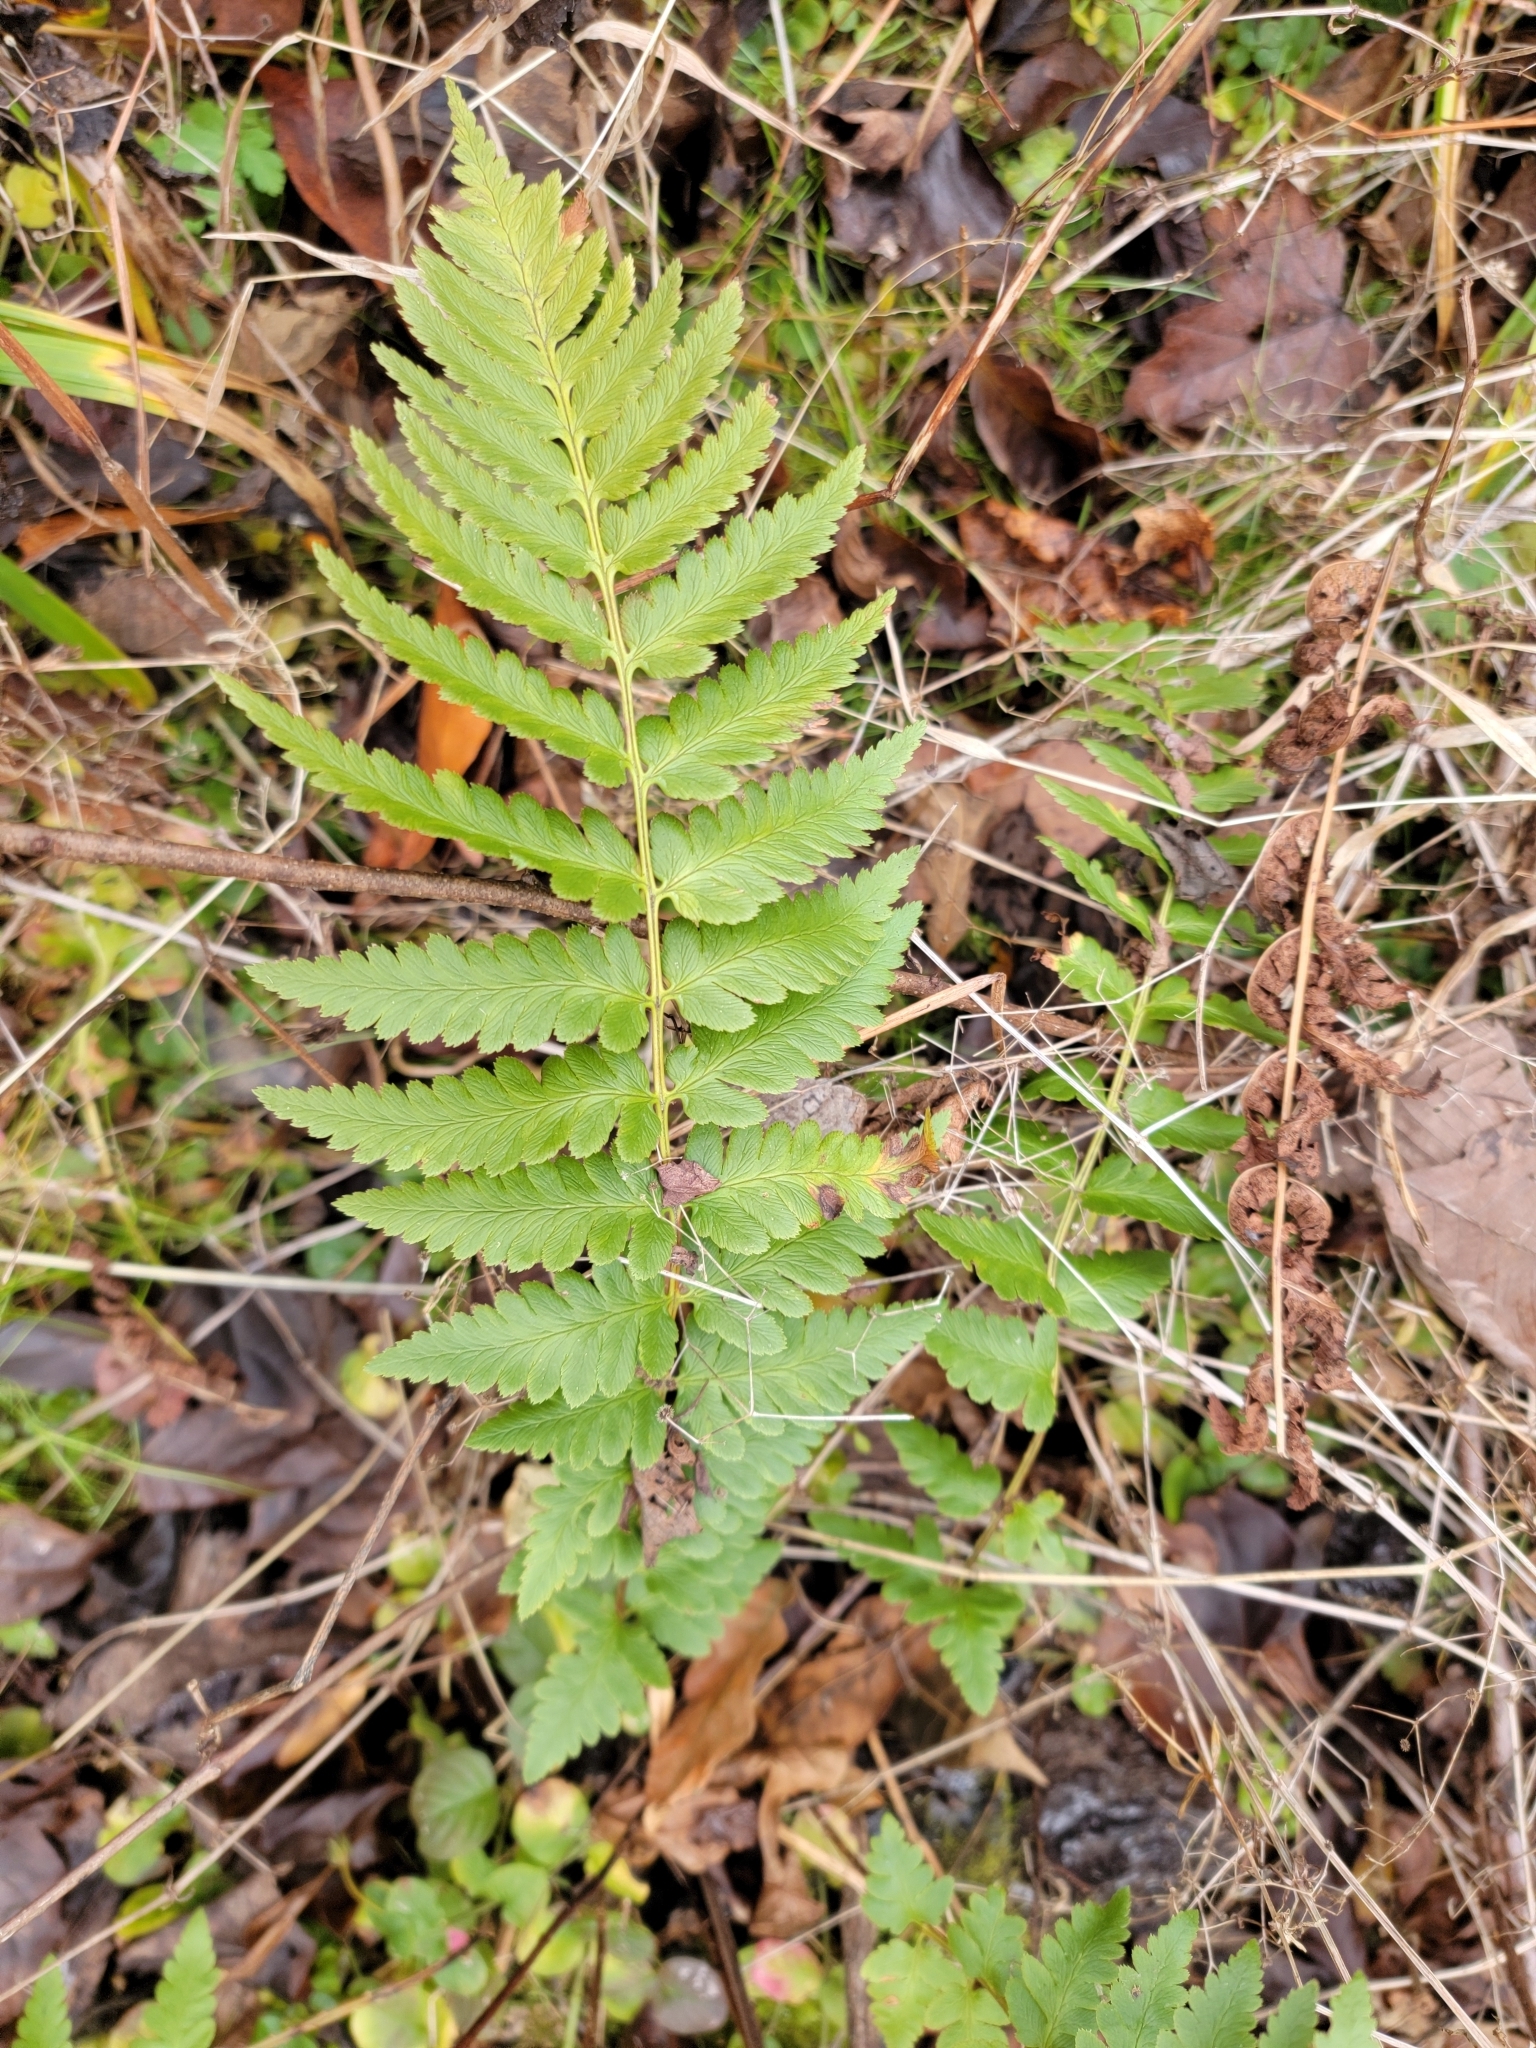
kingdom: Plantae
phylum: Tracheophyta
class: Polypodiopsida
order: Polypodiales
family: Dryopteridaceae
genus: Dryopteris
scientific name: Dryopteris cristata
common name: Crested wood fern
